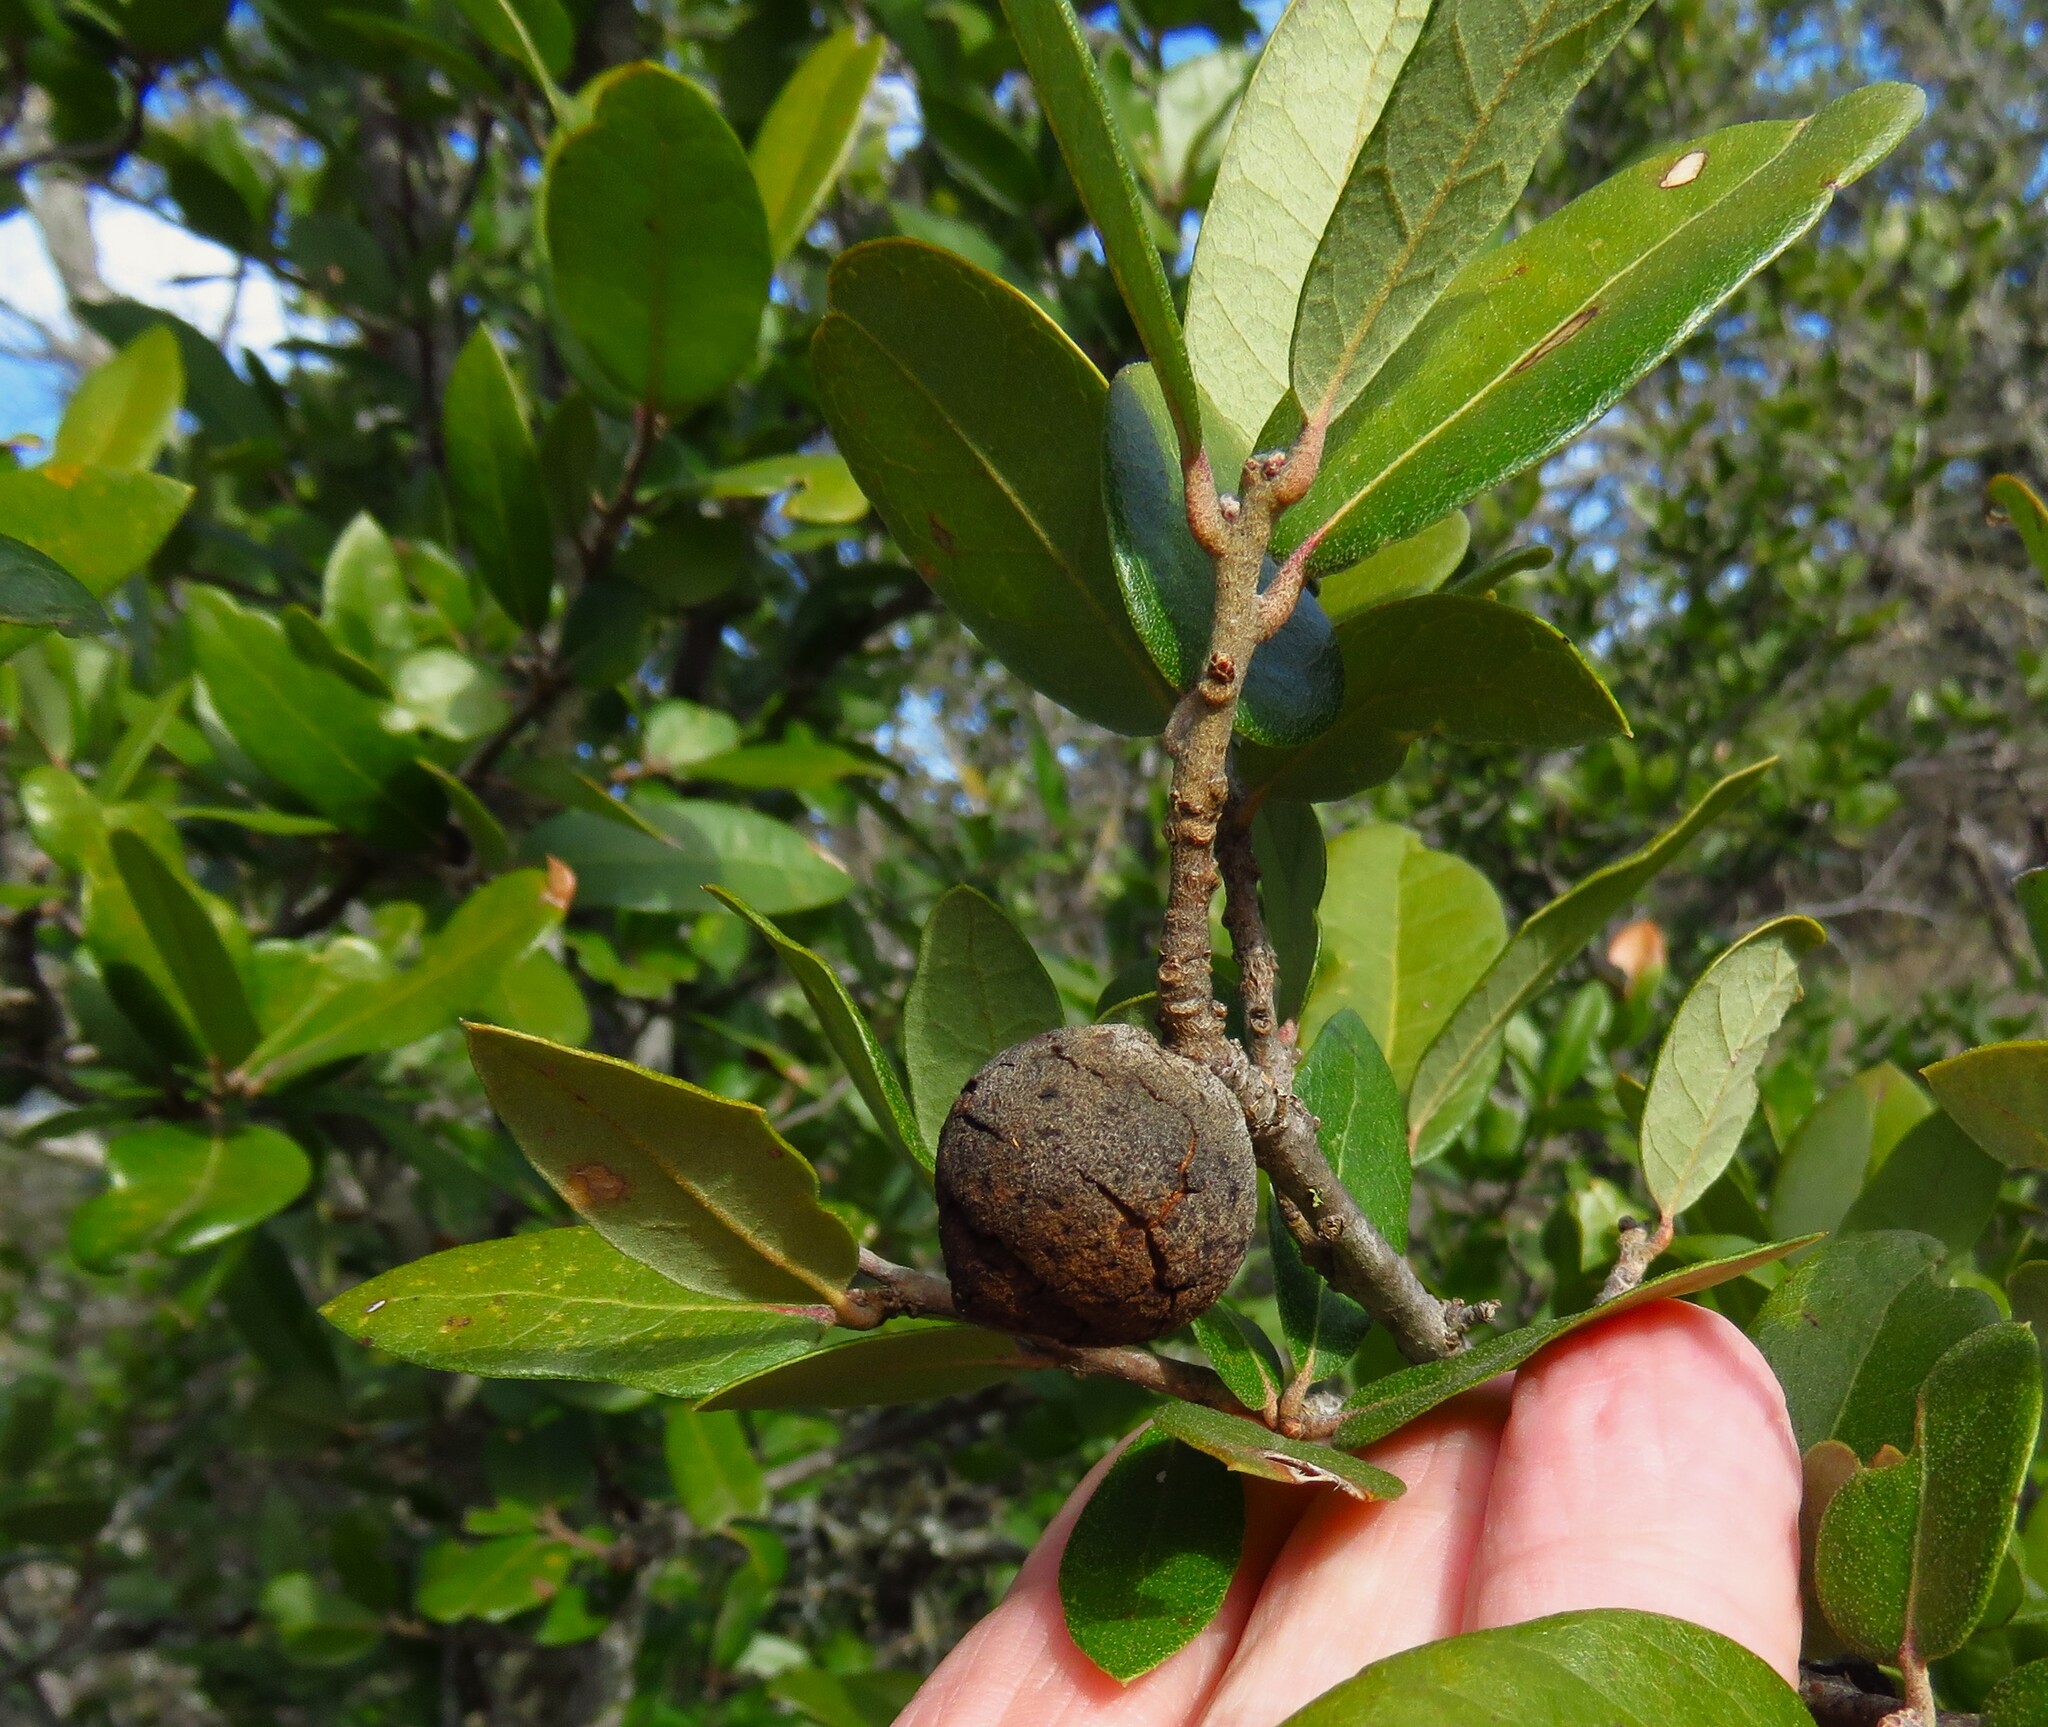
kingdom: Animalia
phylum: Arthropoda
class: Insecta
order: Hymenoptera
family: Cynipidae
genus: Disholcaspis
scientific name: Disholcaspis
